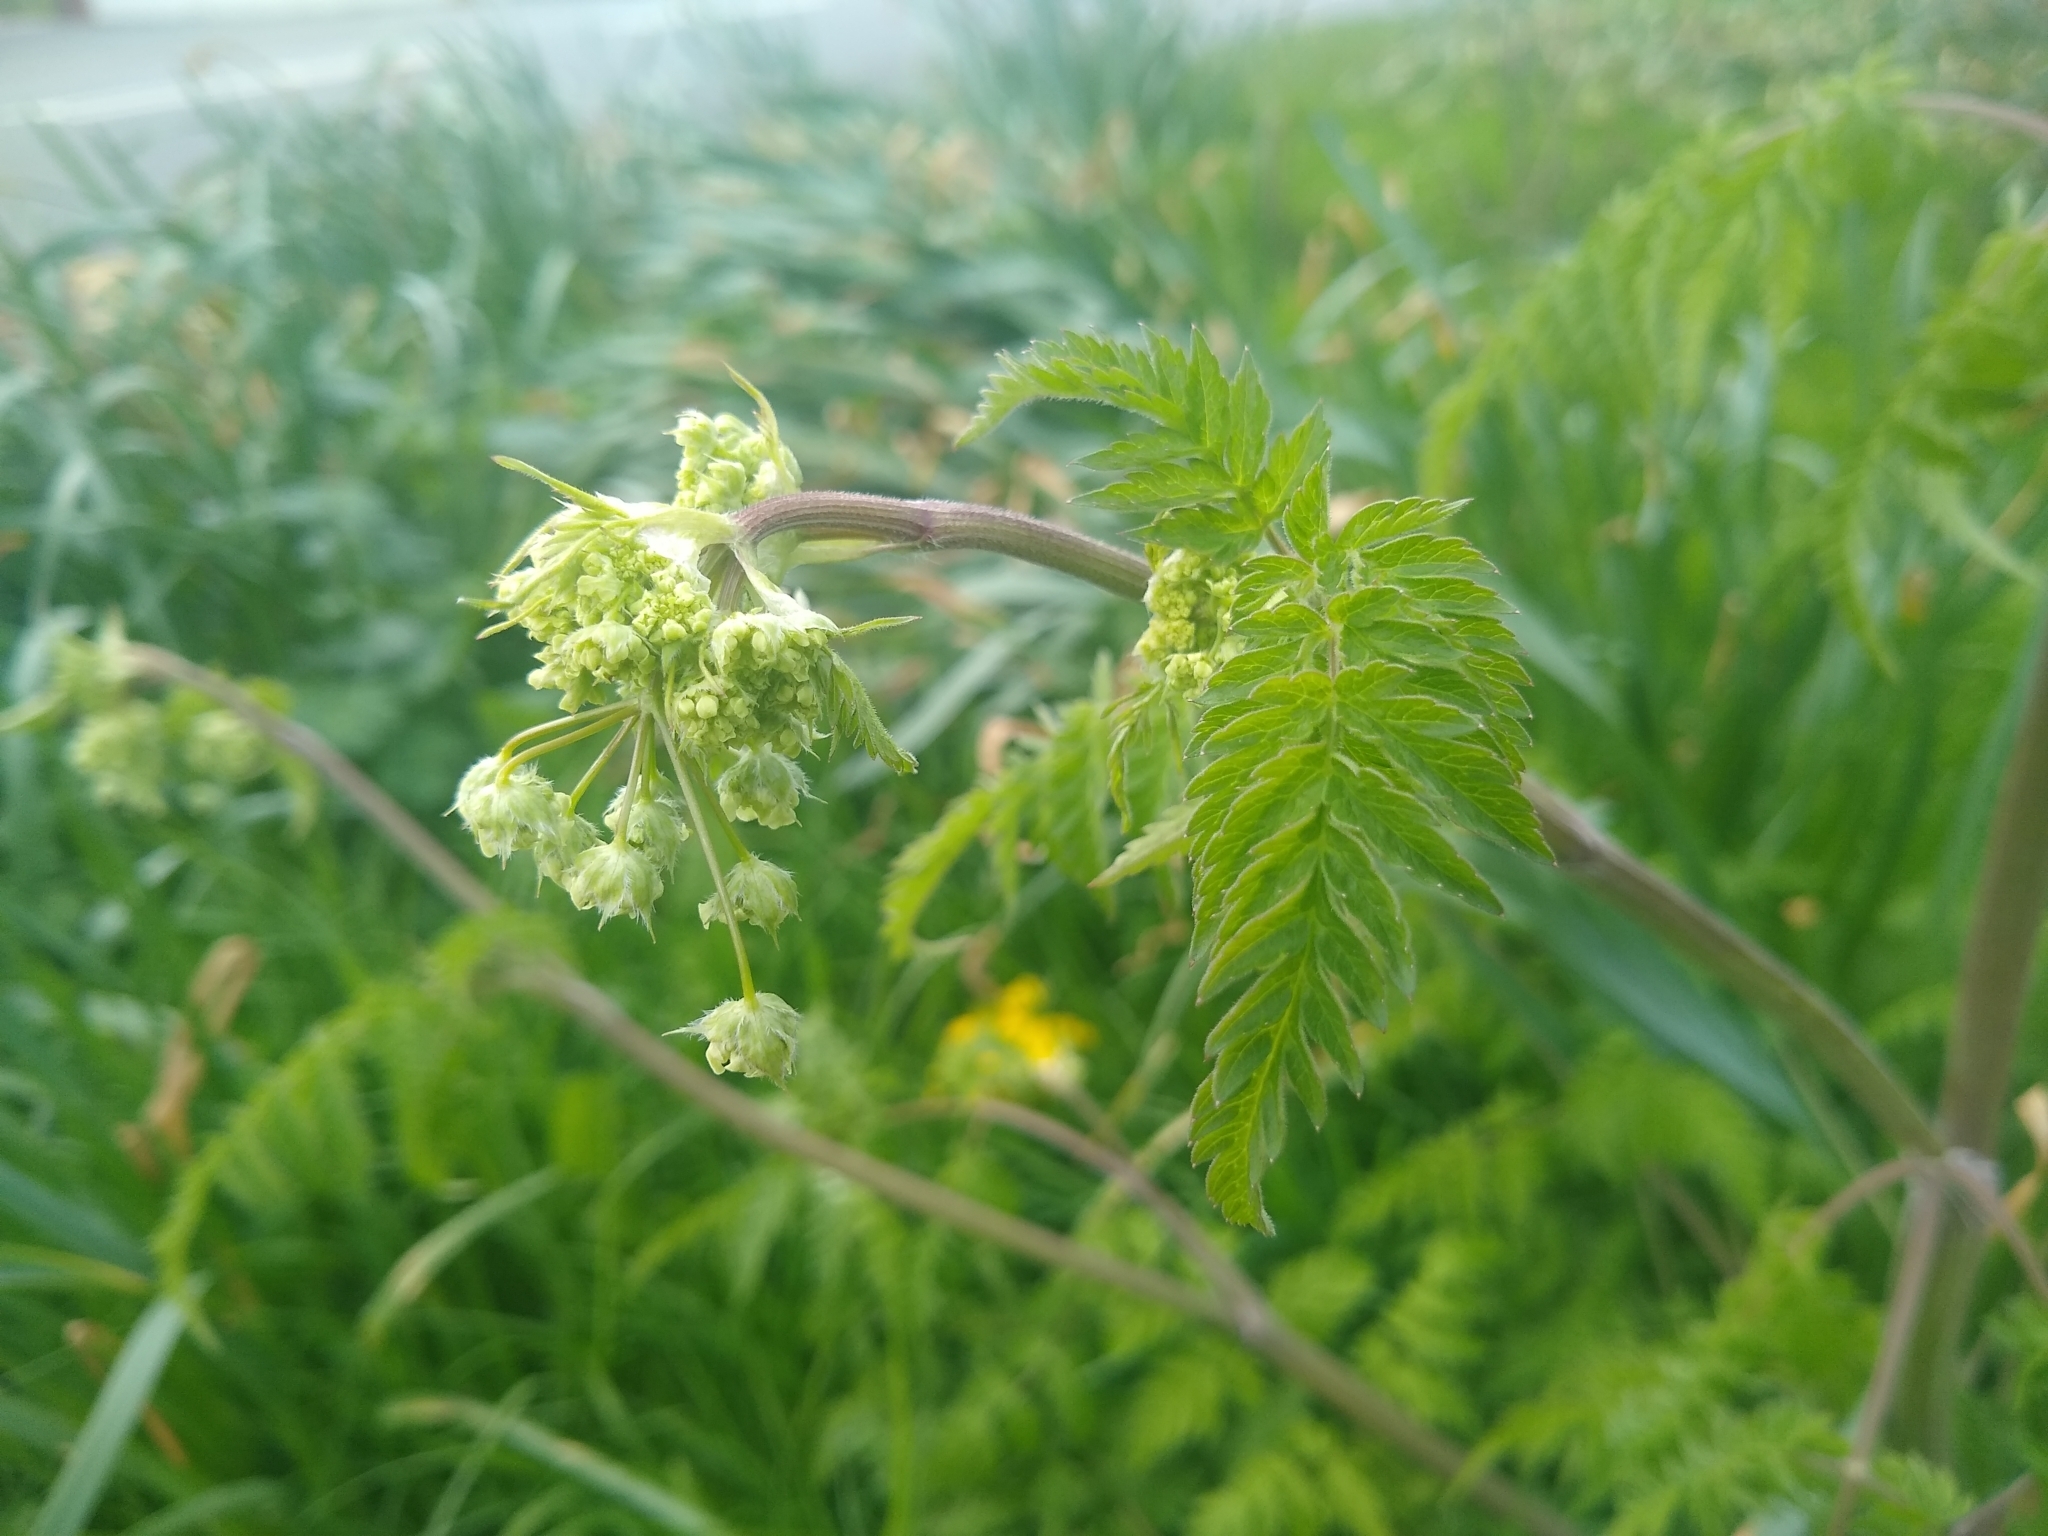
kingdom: Plantae
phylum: Tracheophyta
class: Magnoliopsida
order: Apiales
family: Apiaceae
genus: Anthriscus
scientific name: Anthriscus sylvestris
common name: Cow parsley
